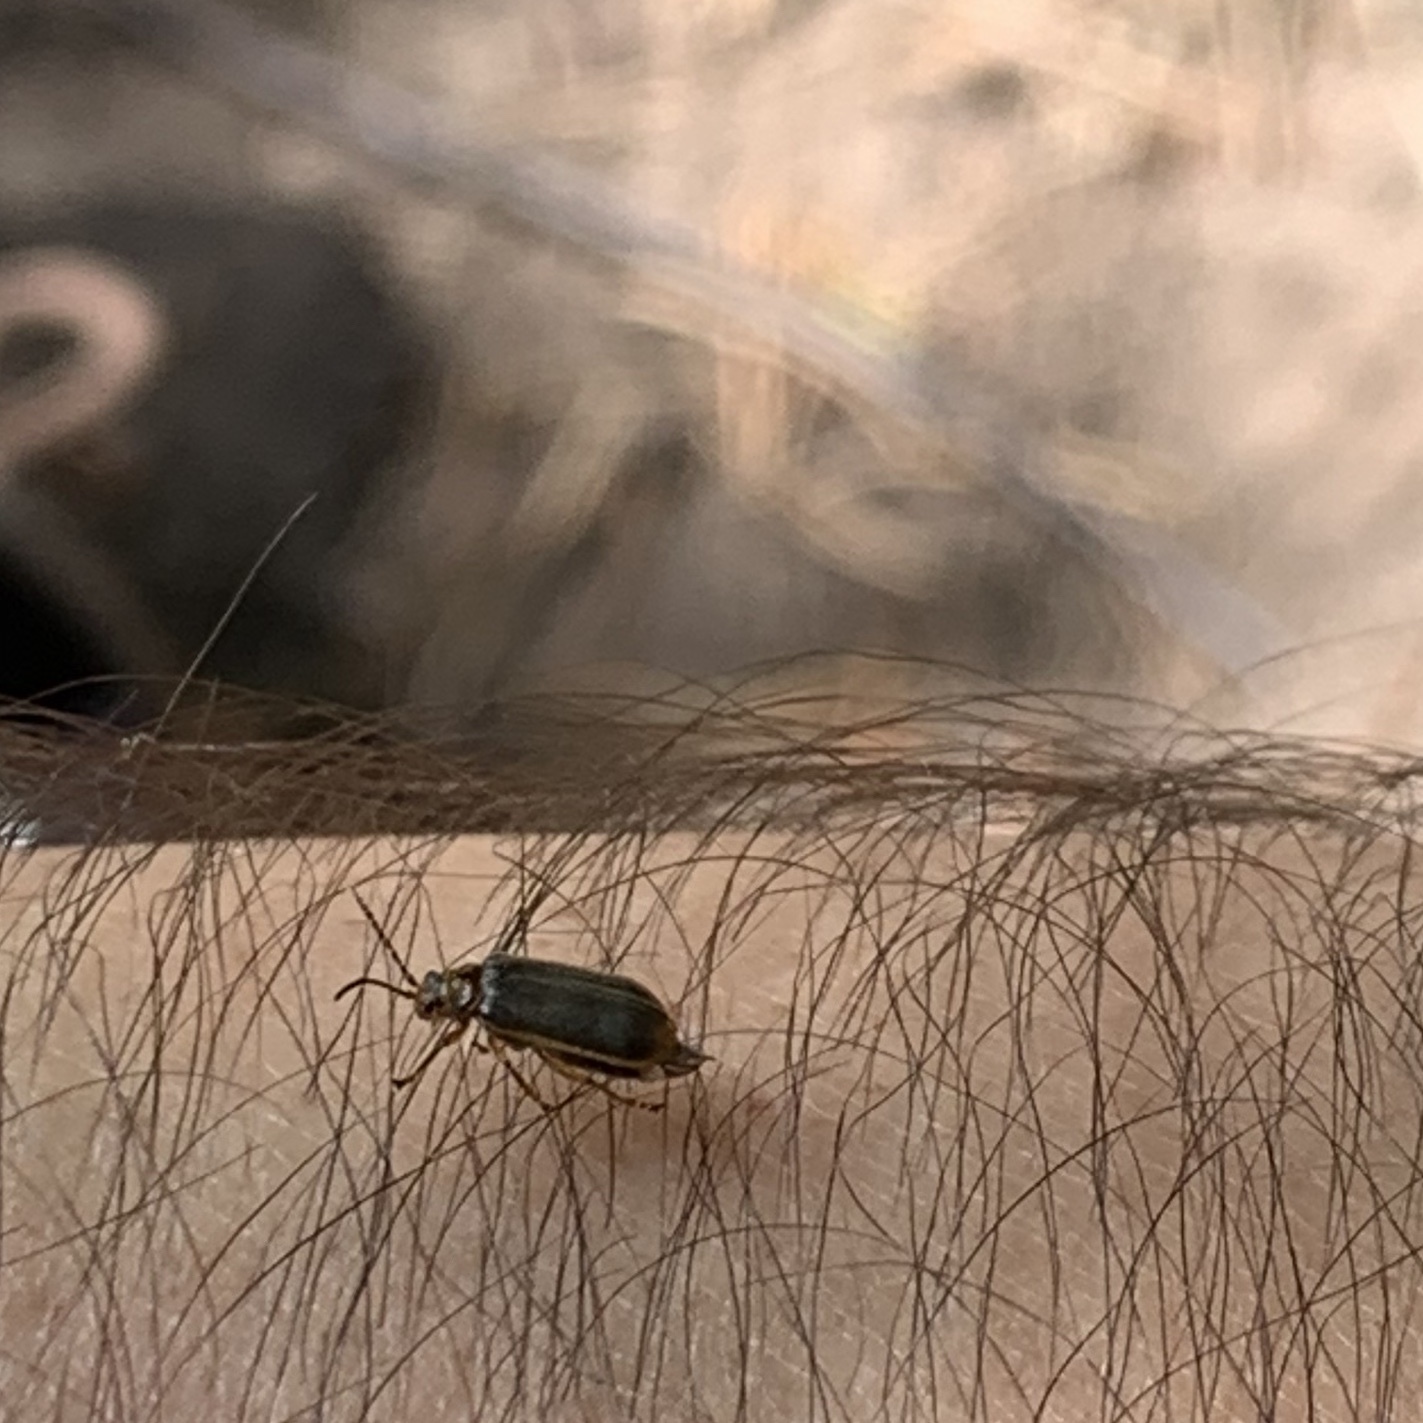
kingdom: Animalia
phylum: Arthropoda
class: Insecta
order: Coleoptera
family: Chrysomelidae
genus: Galerucella
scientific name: Galerucella nymphaeae
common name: Leaf beetle
